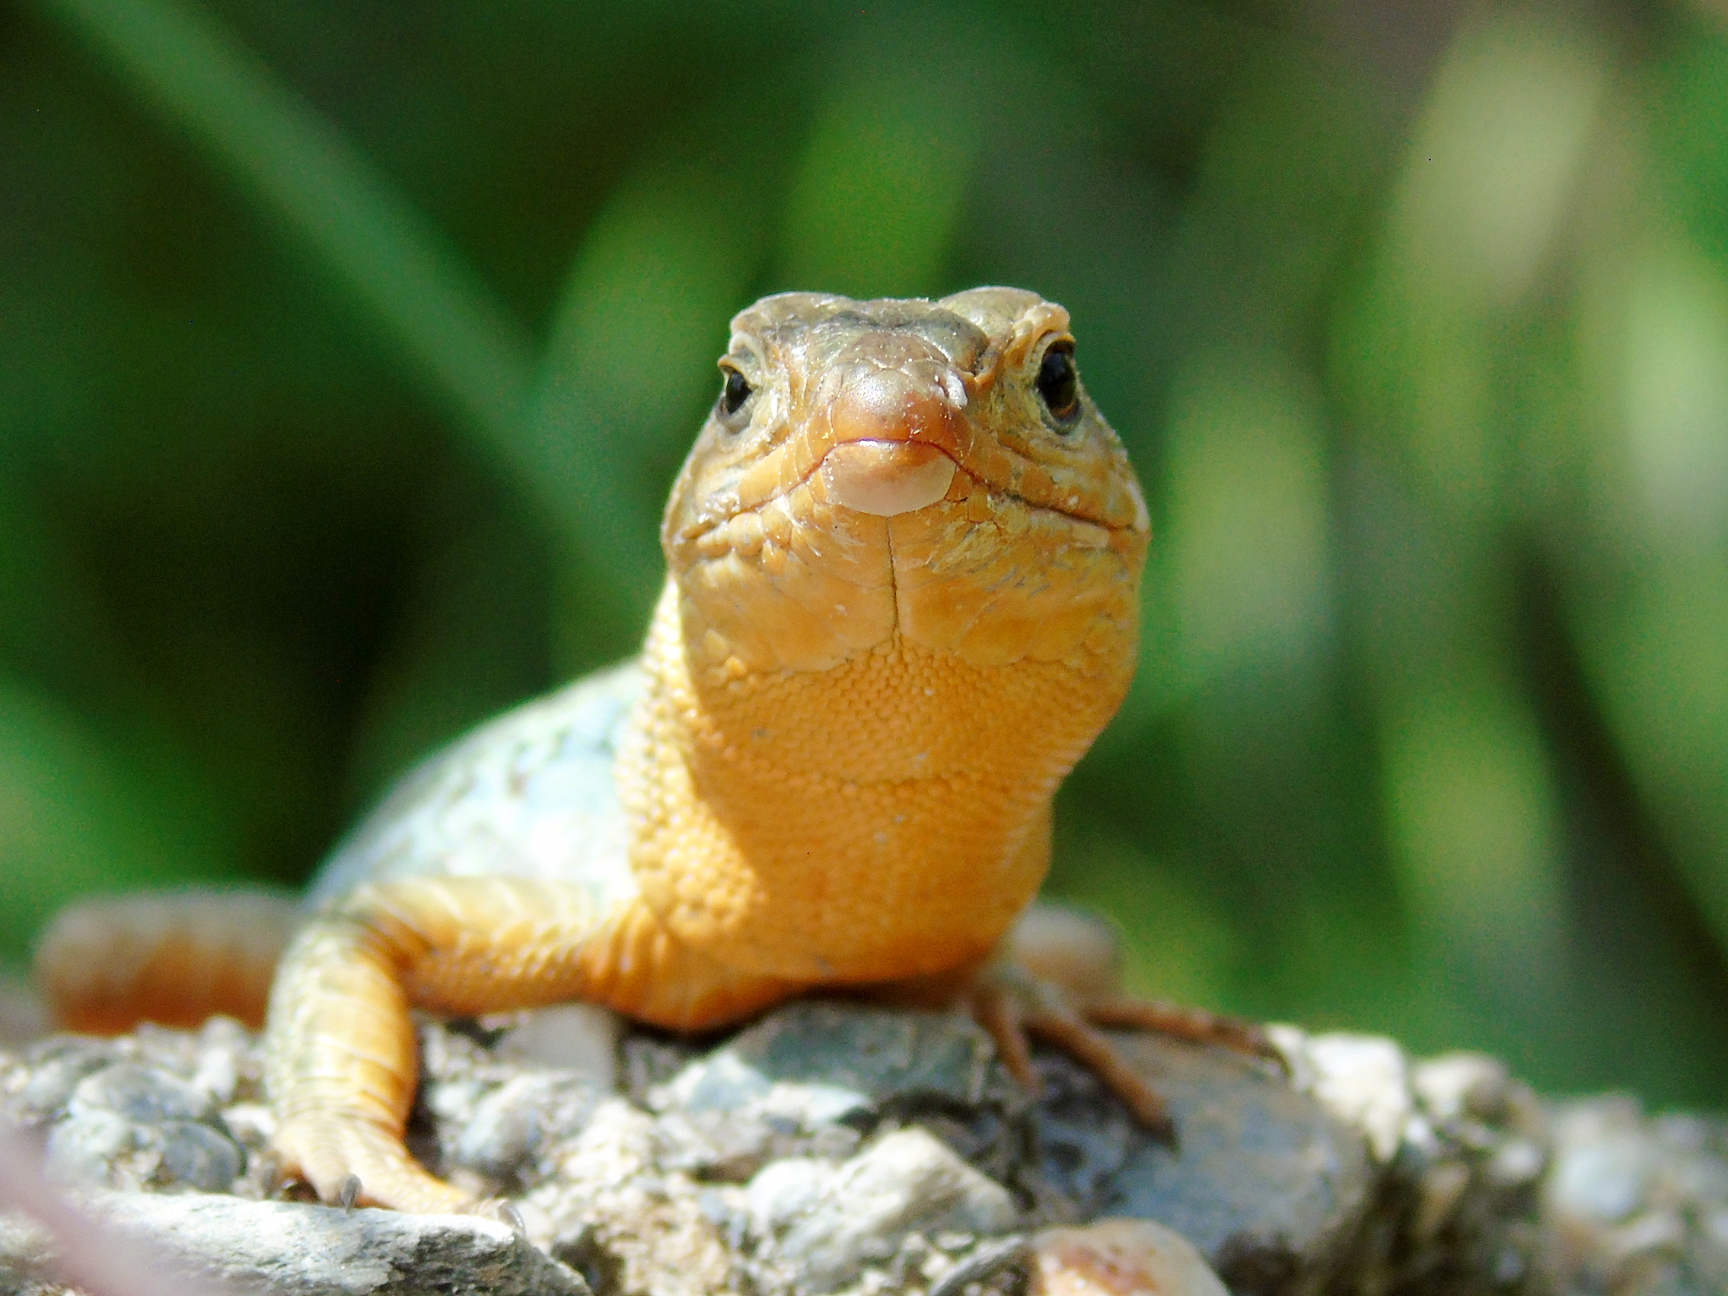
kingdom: Animalia
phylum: Chordata
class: Squamata
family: Lacertidae
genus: Podarcis
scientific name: Podarcis peloponnesiacus
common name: Peloponnese wall lizard
